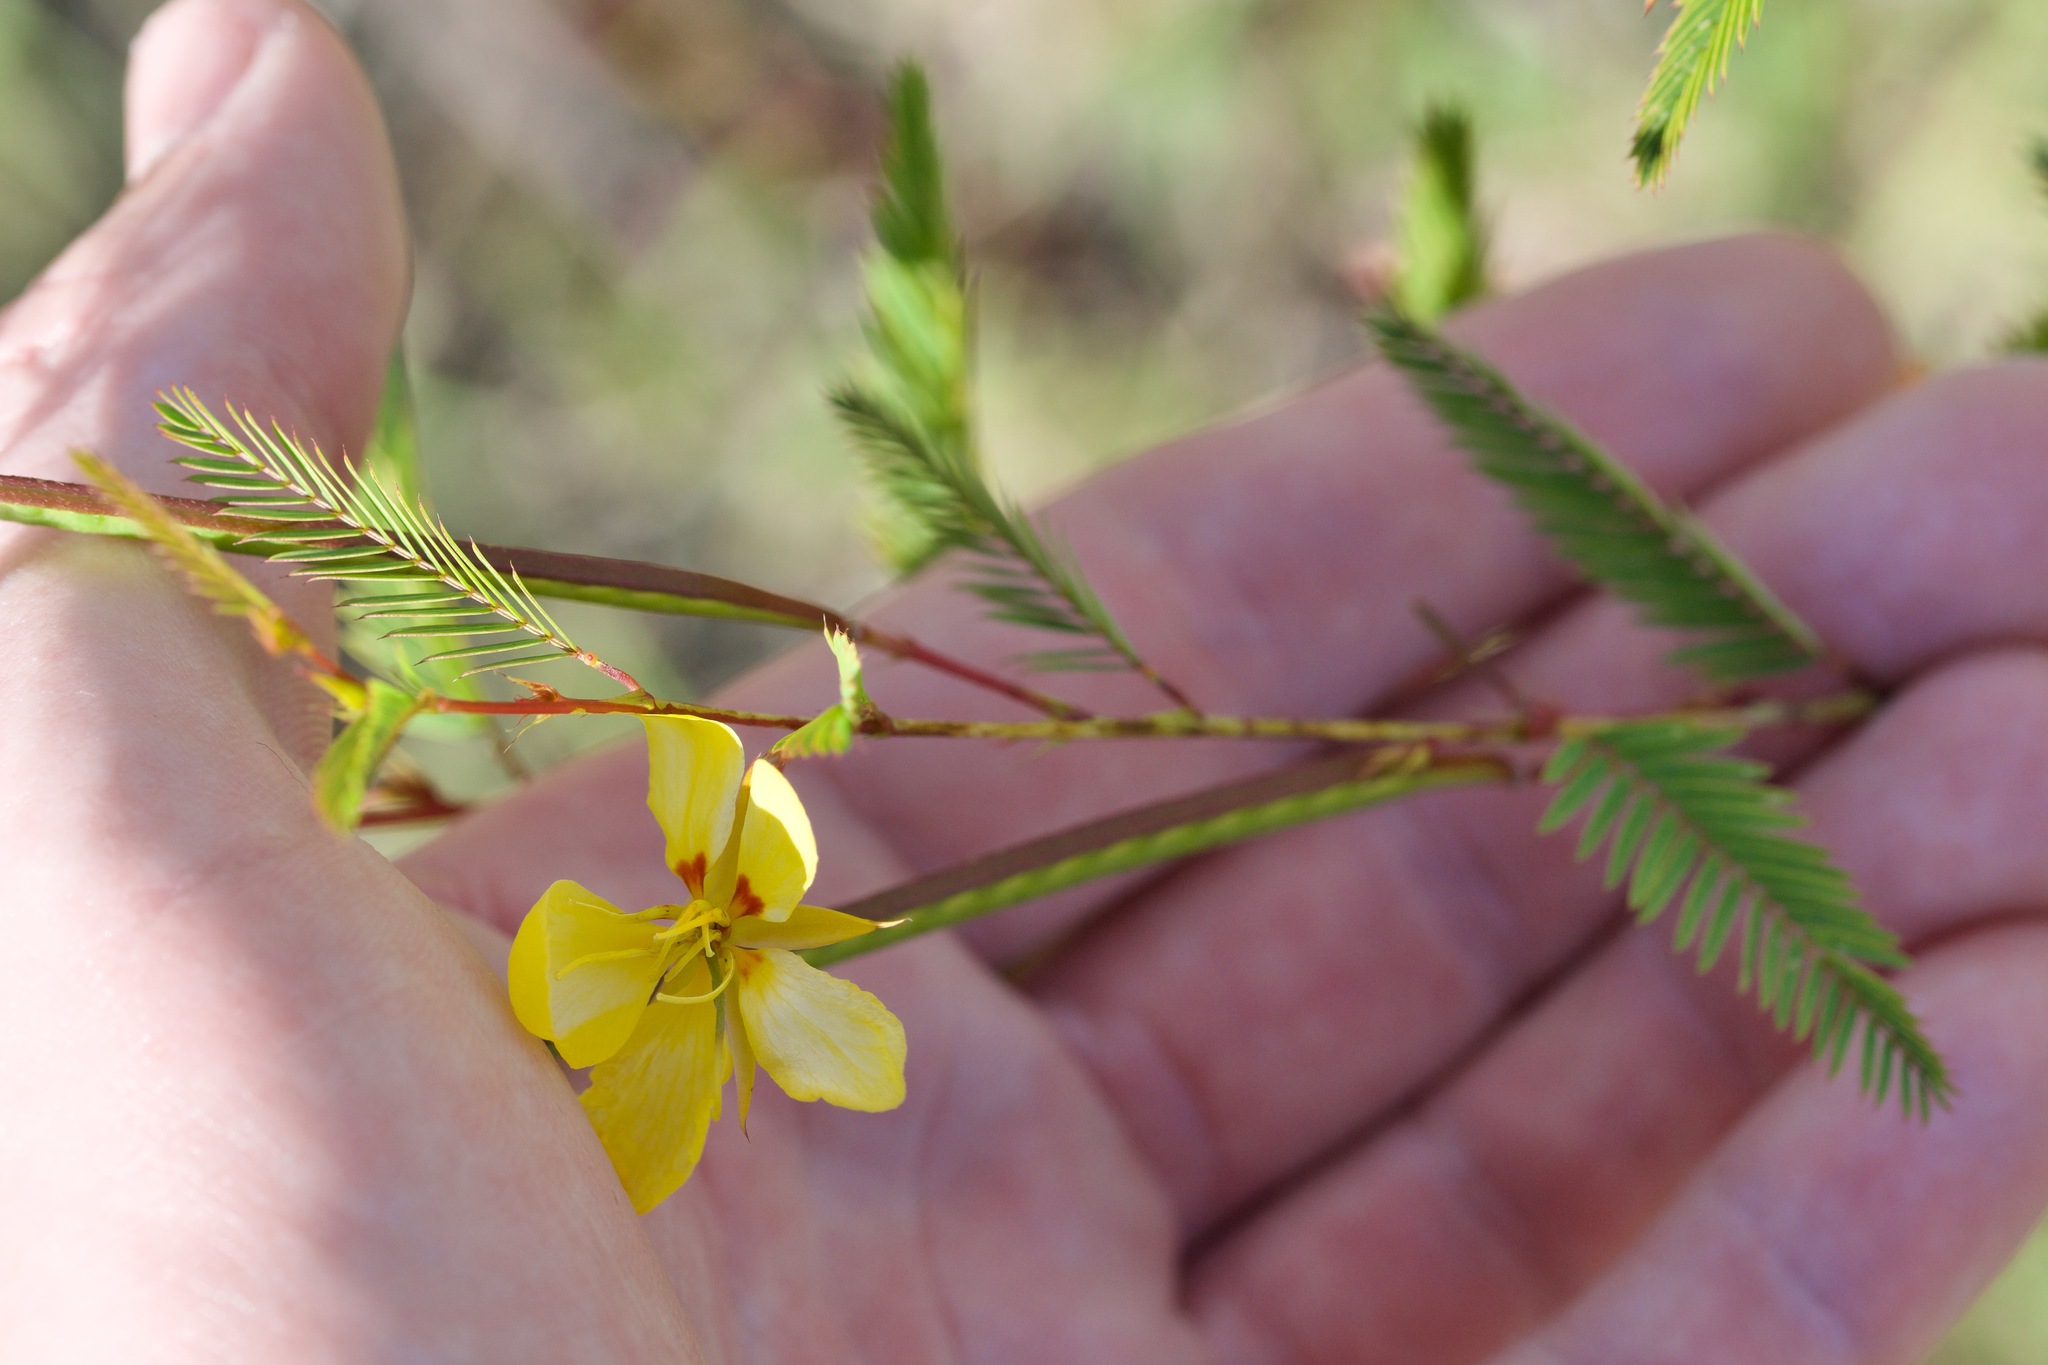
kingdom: Plantae
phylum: Tracheophyta
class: Magnoliopsida
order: Fabales
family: Fabaceae
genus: Chamaecrista
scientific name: Chamaecrista fasciculata
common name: Golden cassia
